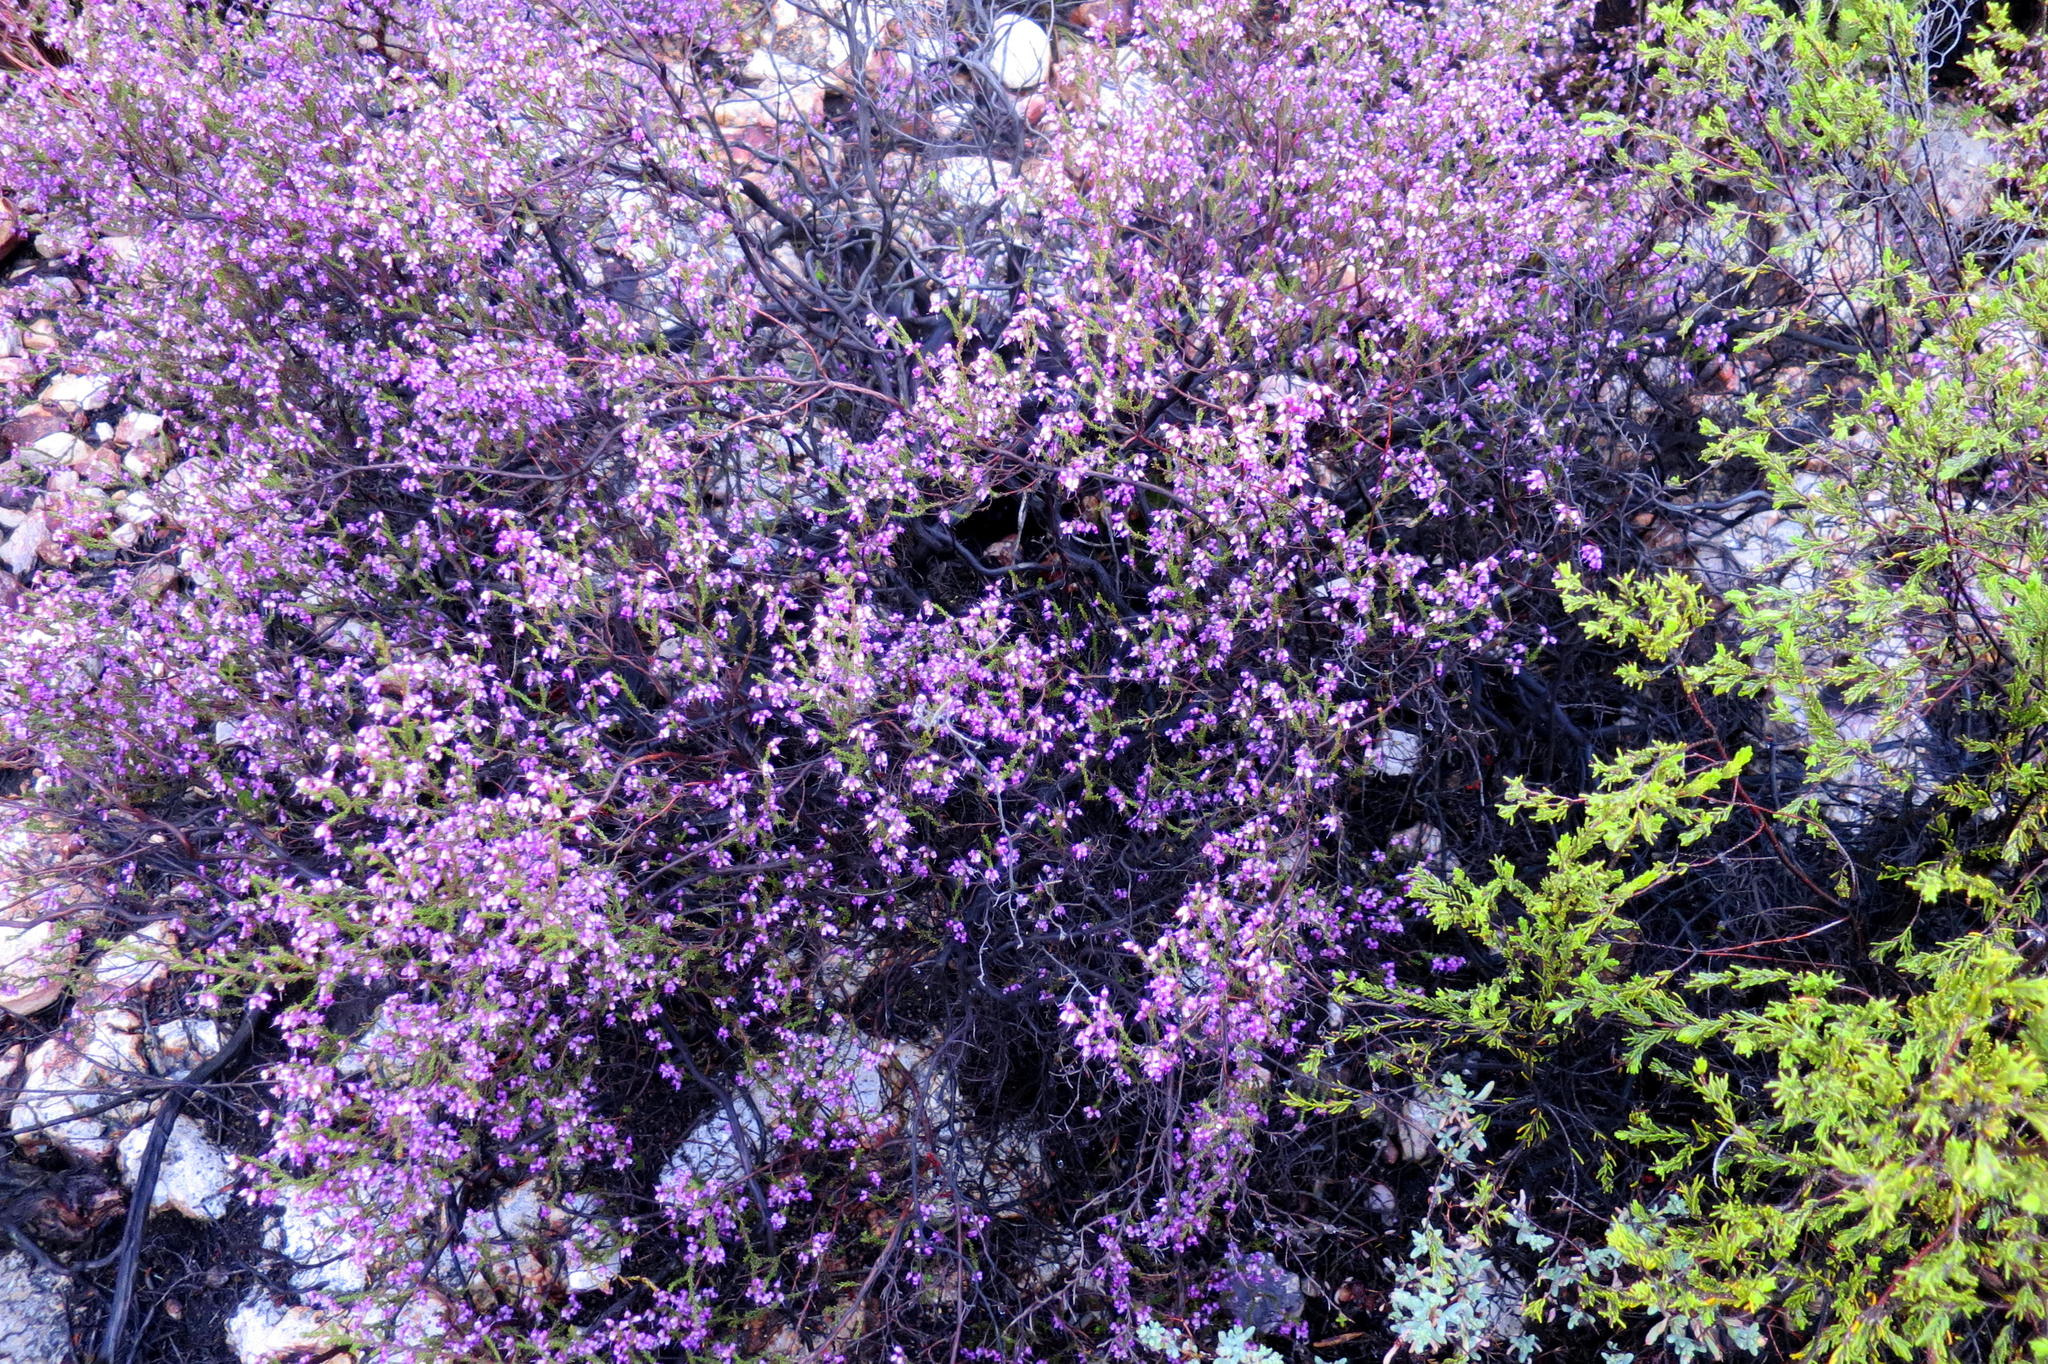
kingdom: Plantae
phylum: Tracheophyta
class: Magnoliopsida
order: Ericales
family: Ericaceae
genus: Erica
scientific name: Erica vlokii
